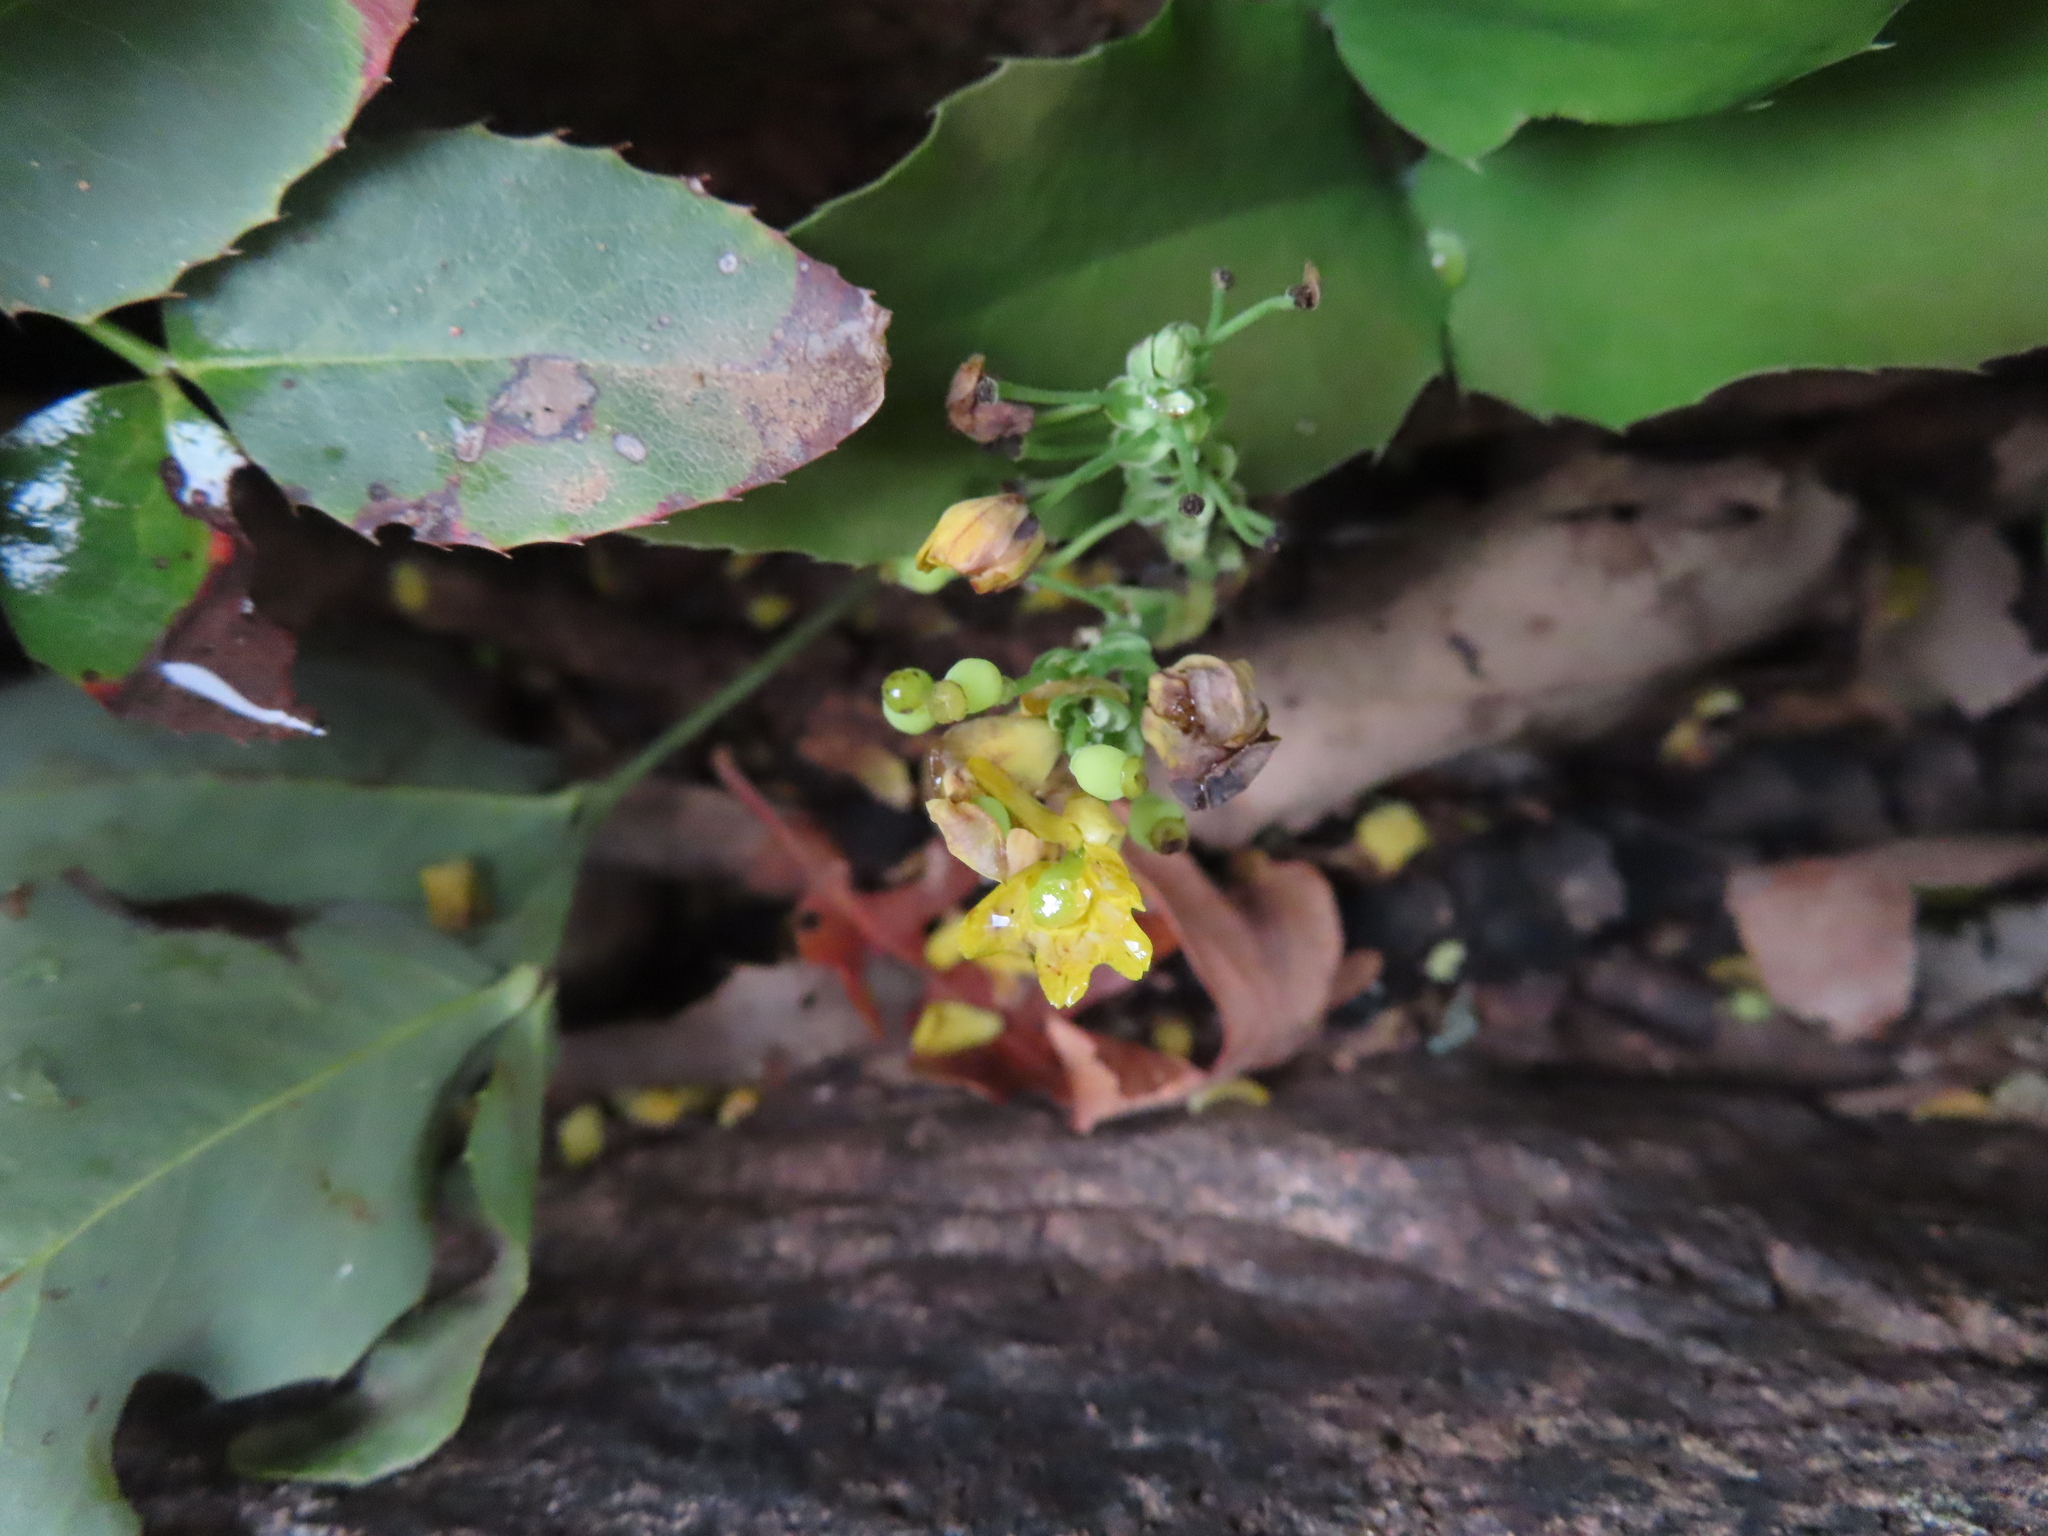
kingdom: Plantae
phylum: Tracheophyta
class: Magnoliopsida
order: Ranunculales
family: Berberidaceae
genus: Mahonia
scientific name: Mahonia repens
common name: Creeping oregon-grape
